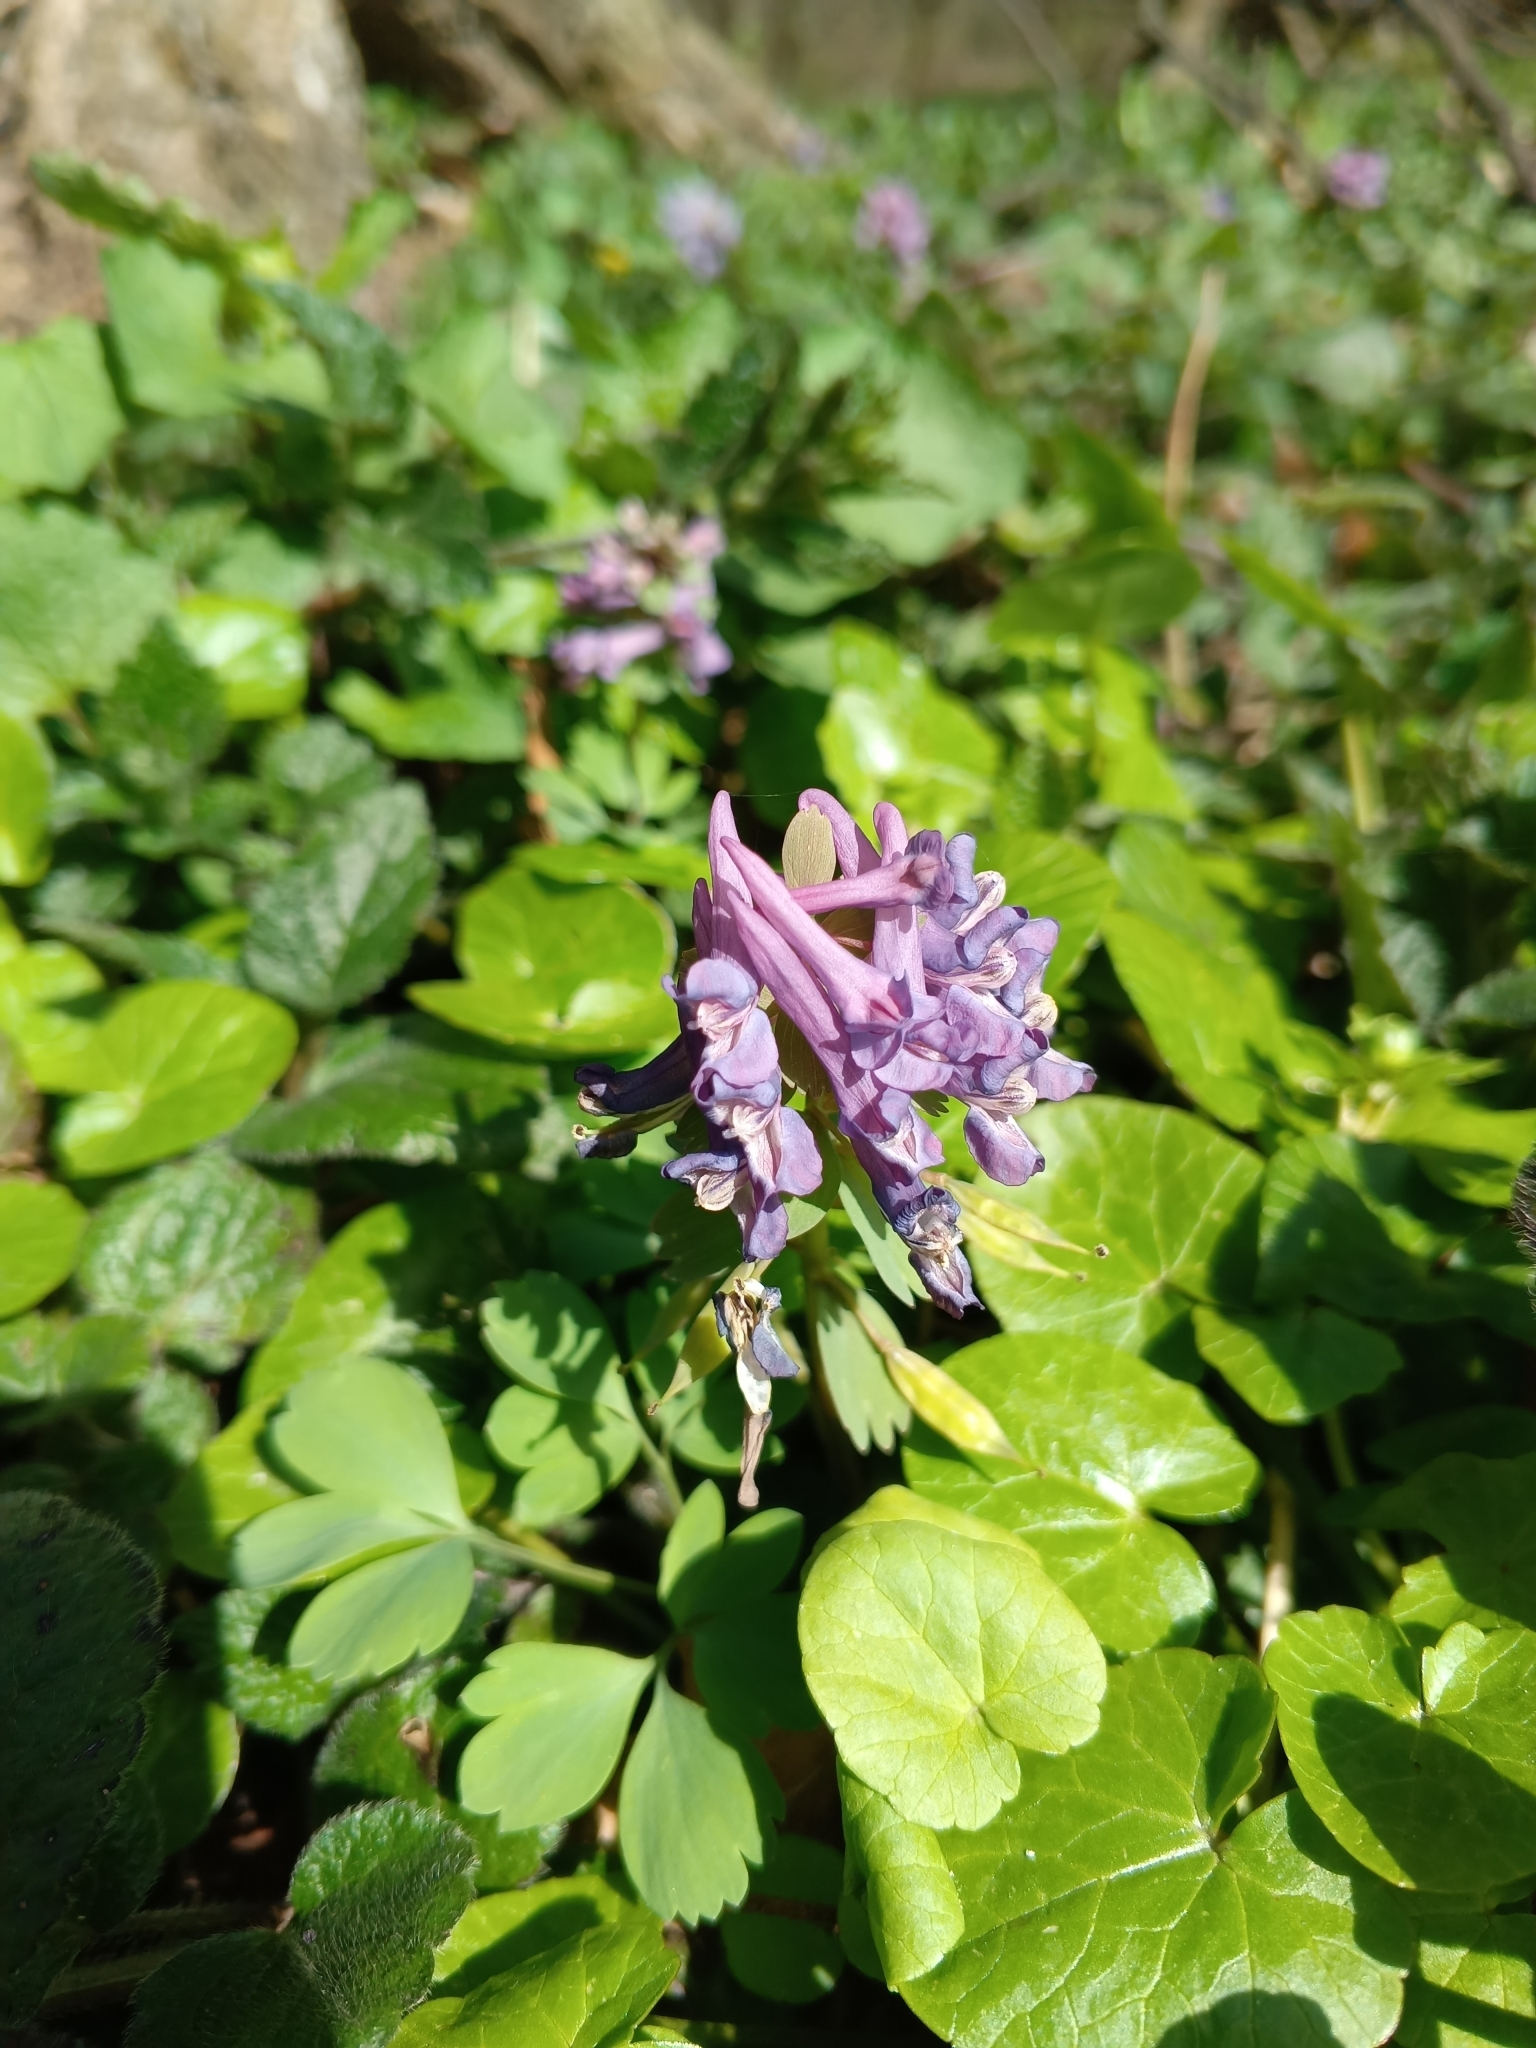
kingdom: Plantae
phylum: Tracheophyta
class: Magnoliopsida
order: Ranunculales
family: Papaveraceae
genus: Corydalis
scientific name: Corydalis solida
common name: Bird-in-a-bush
